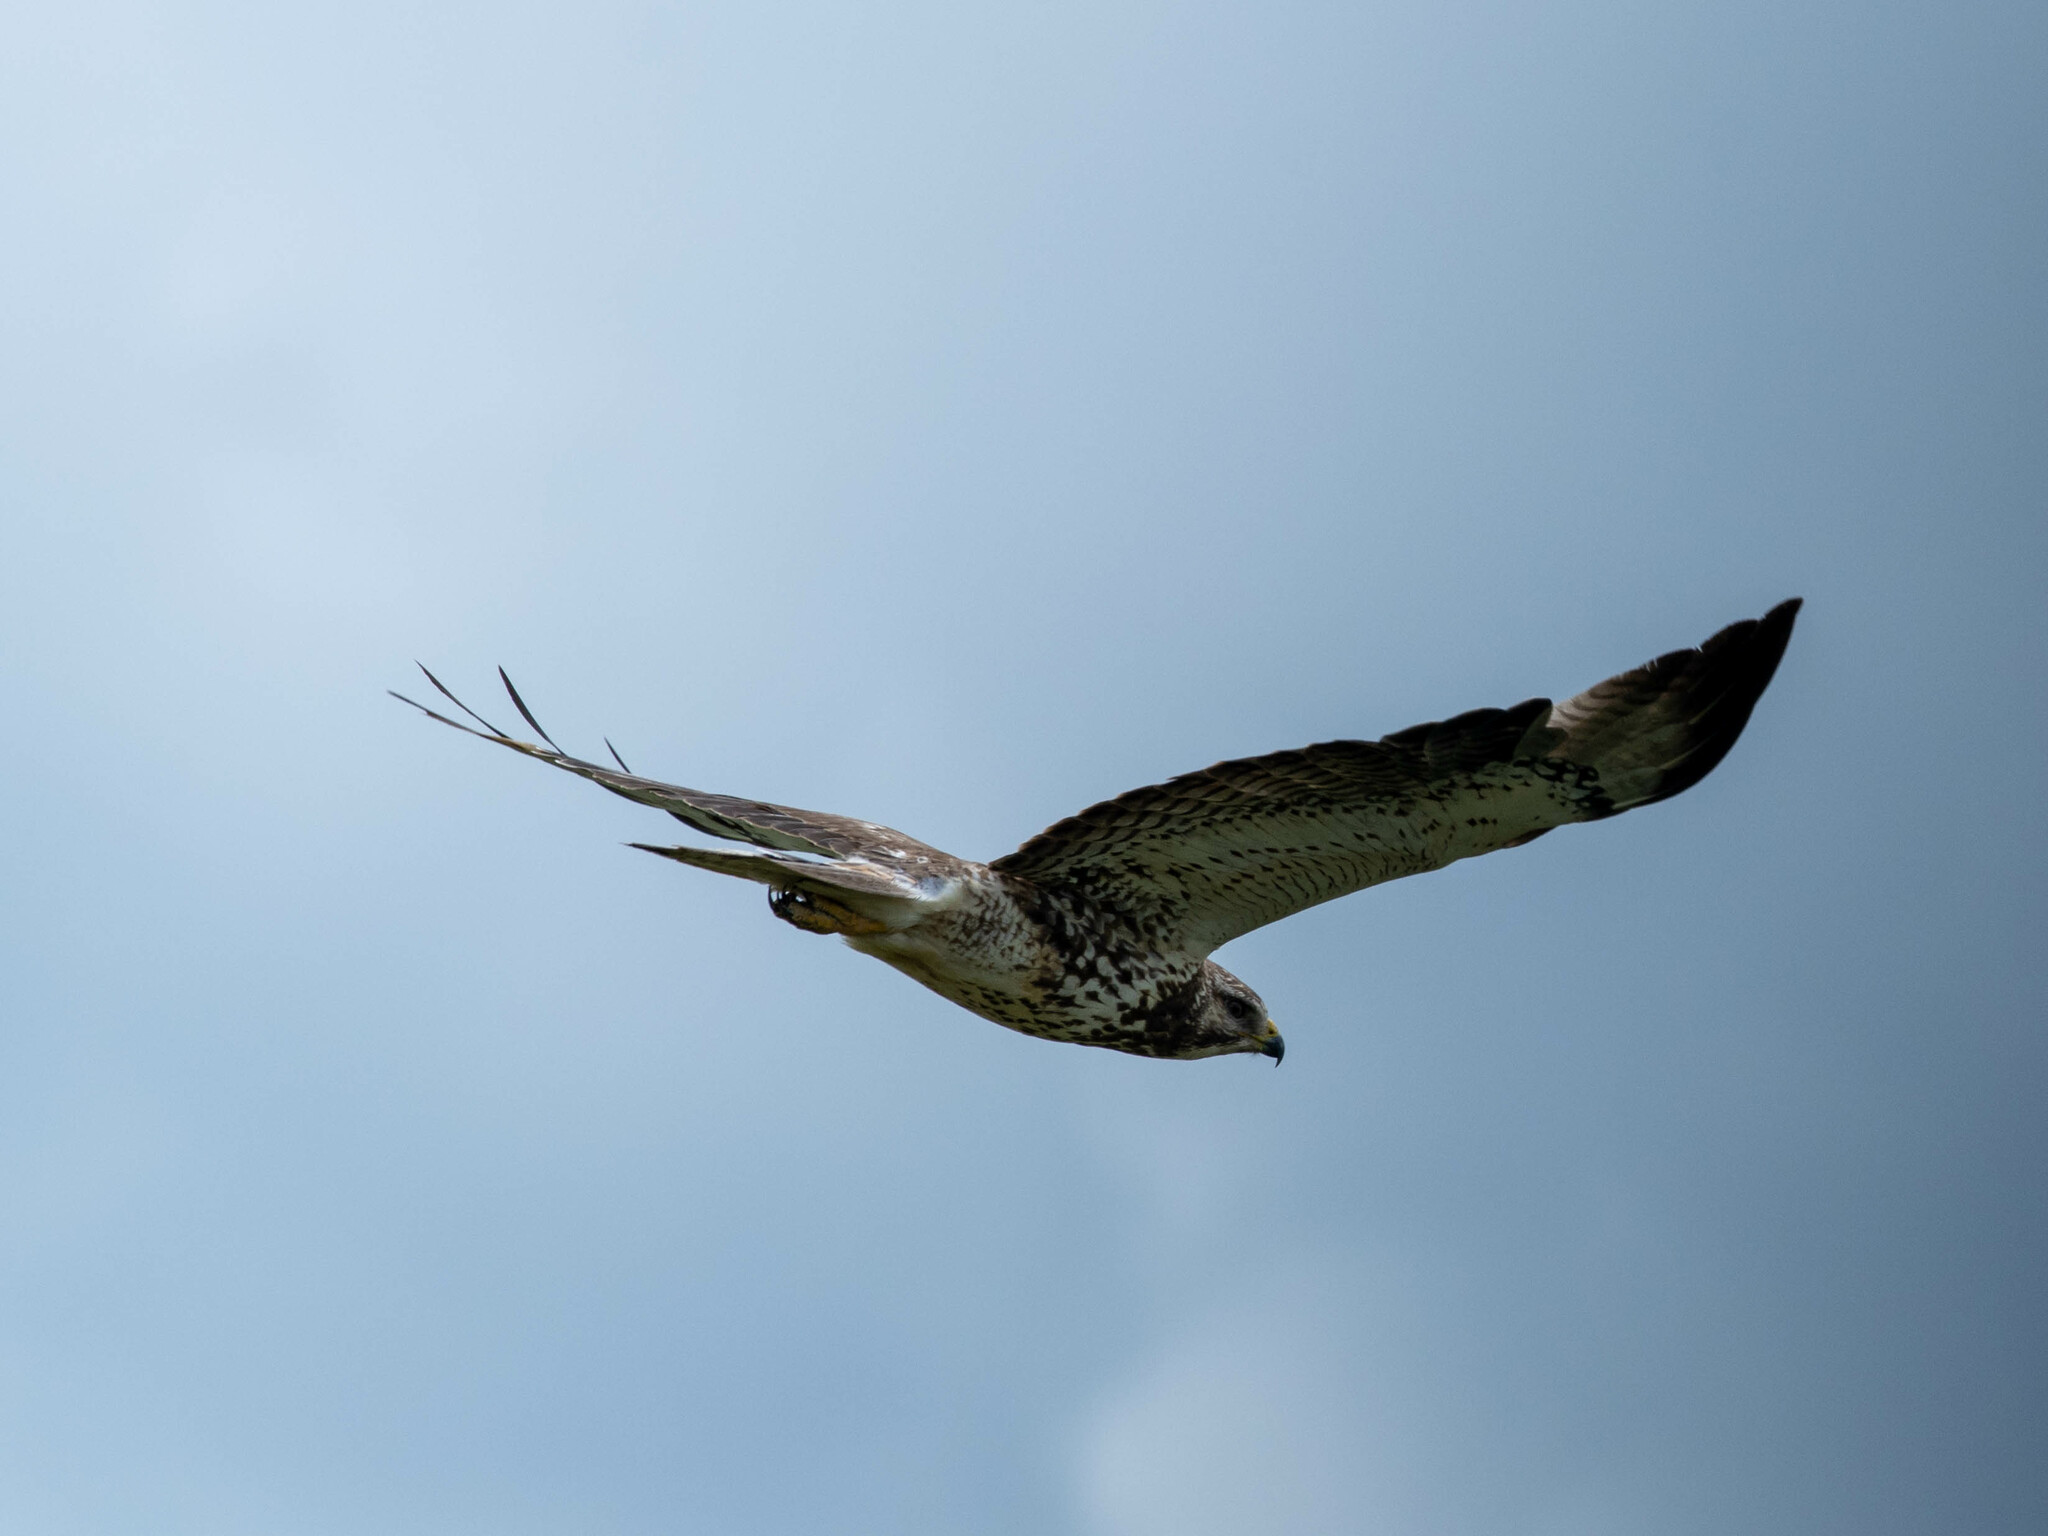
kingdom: Animalia
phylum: Chordata
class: Aves
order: Accipitriformes
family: Accipitridae
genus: Buteo
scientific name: Buteo swainsoni
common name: Swainson's hawk
